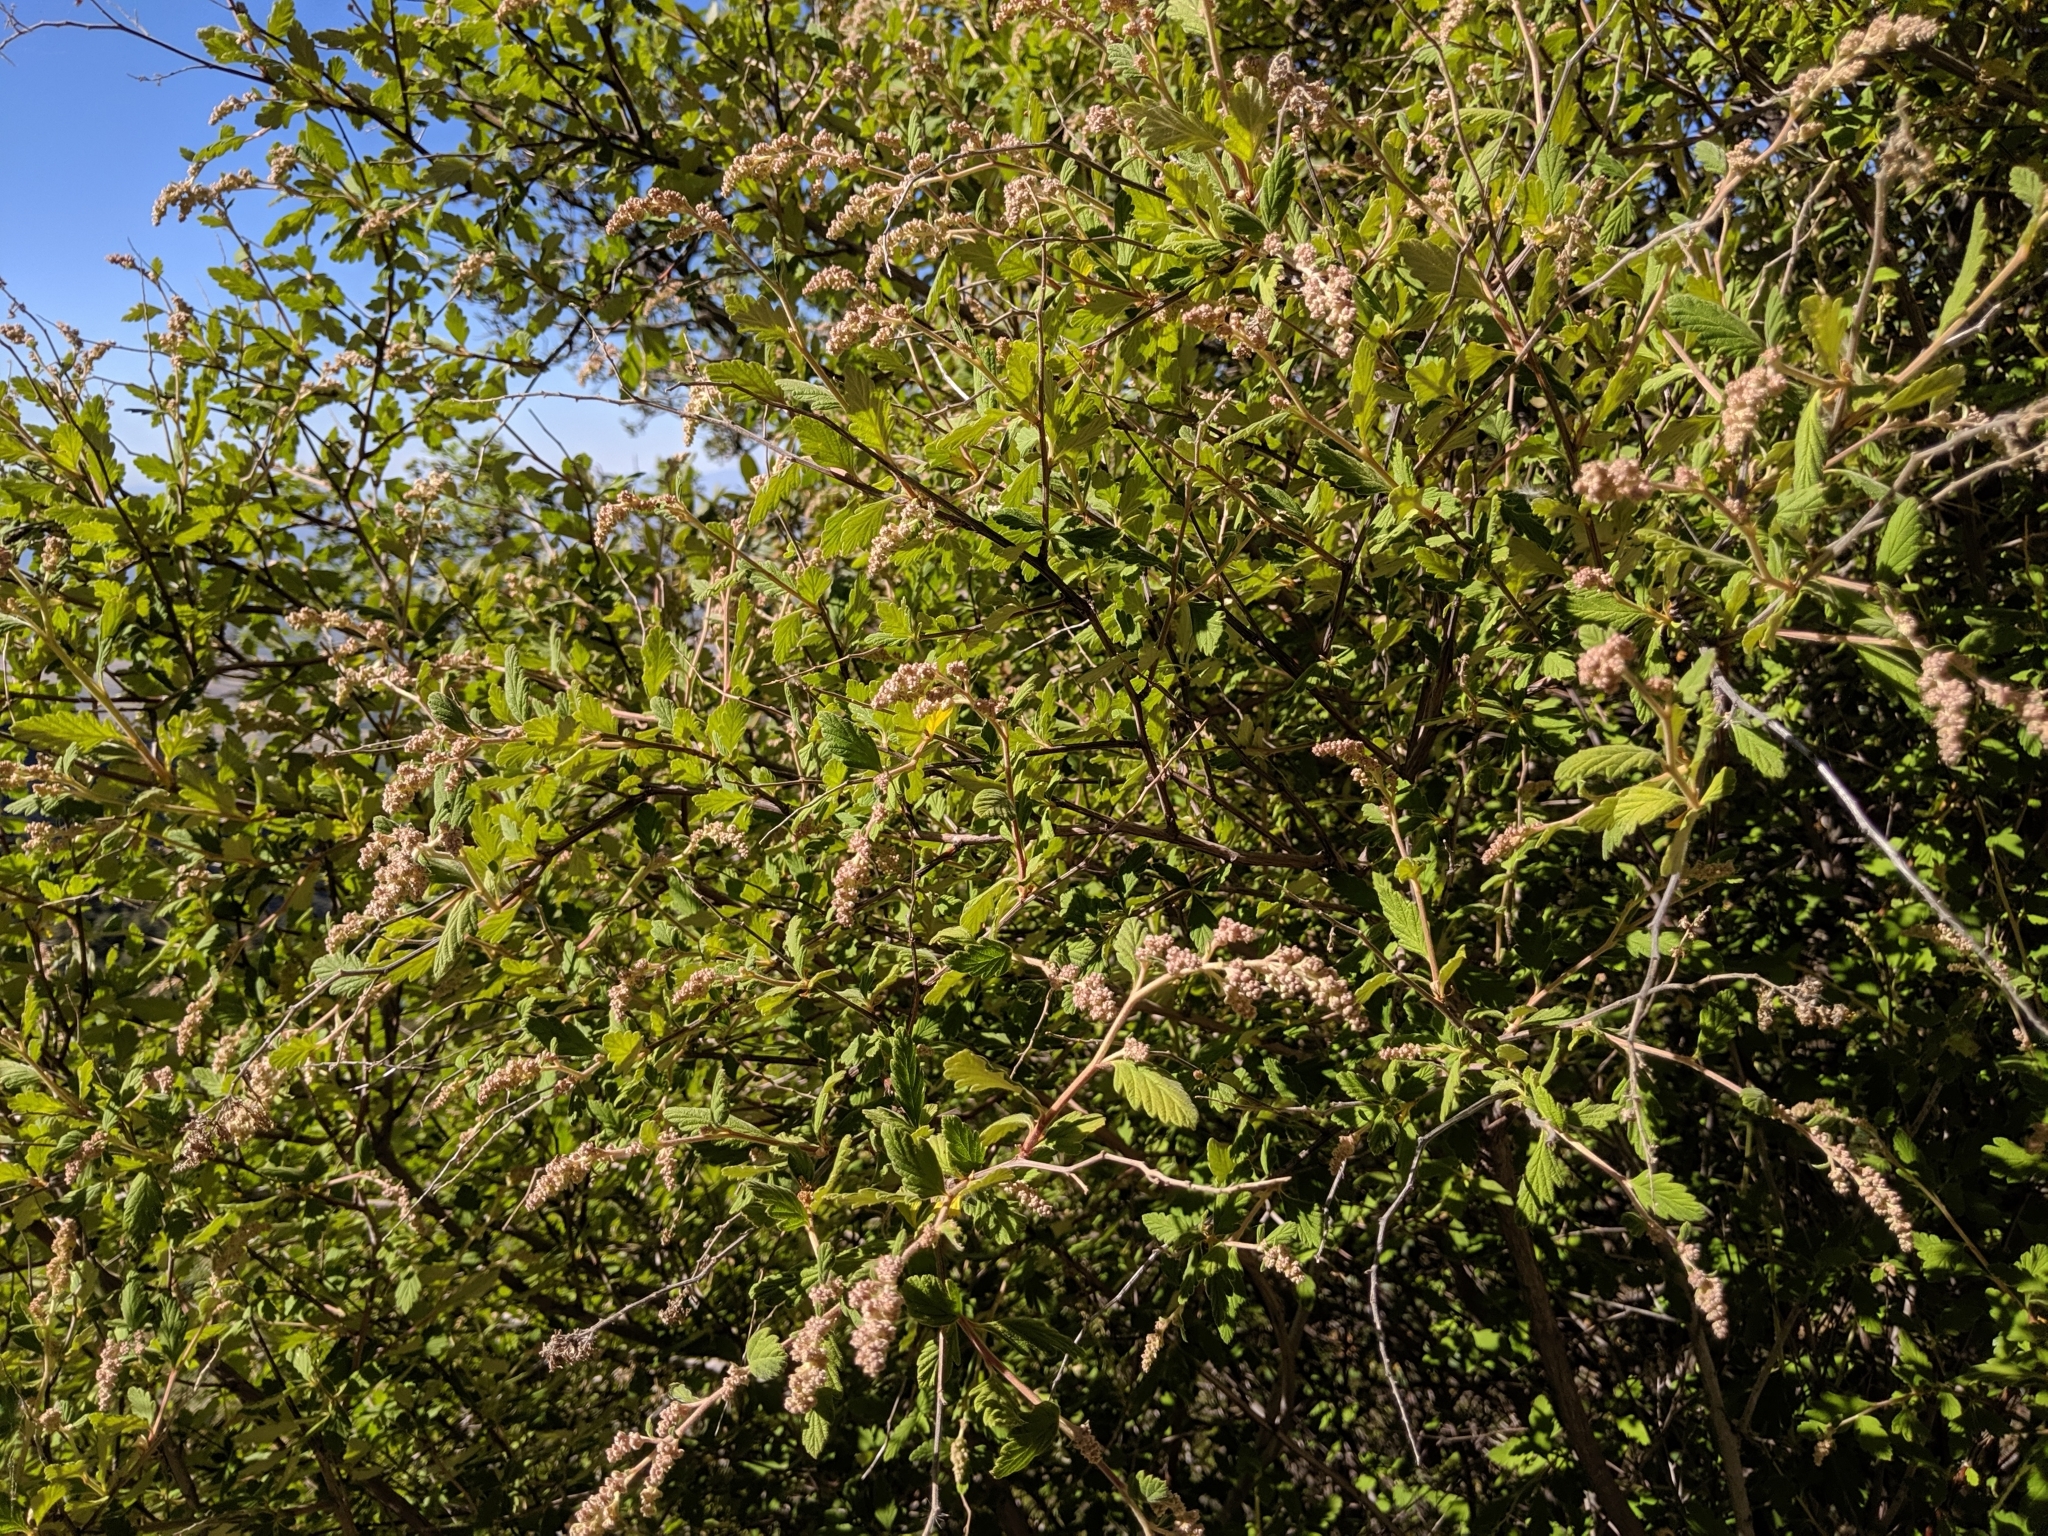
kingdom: Plantae
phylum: Tracheophyta
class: Magnoliopsida
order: Rosales
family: Rosaceae
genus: Holodiscus
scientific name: Holodiscus discolor
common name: Oceanspray
